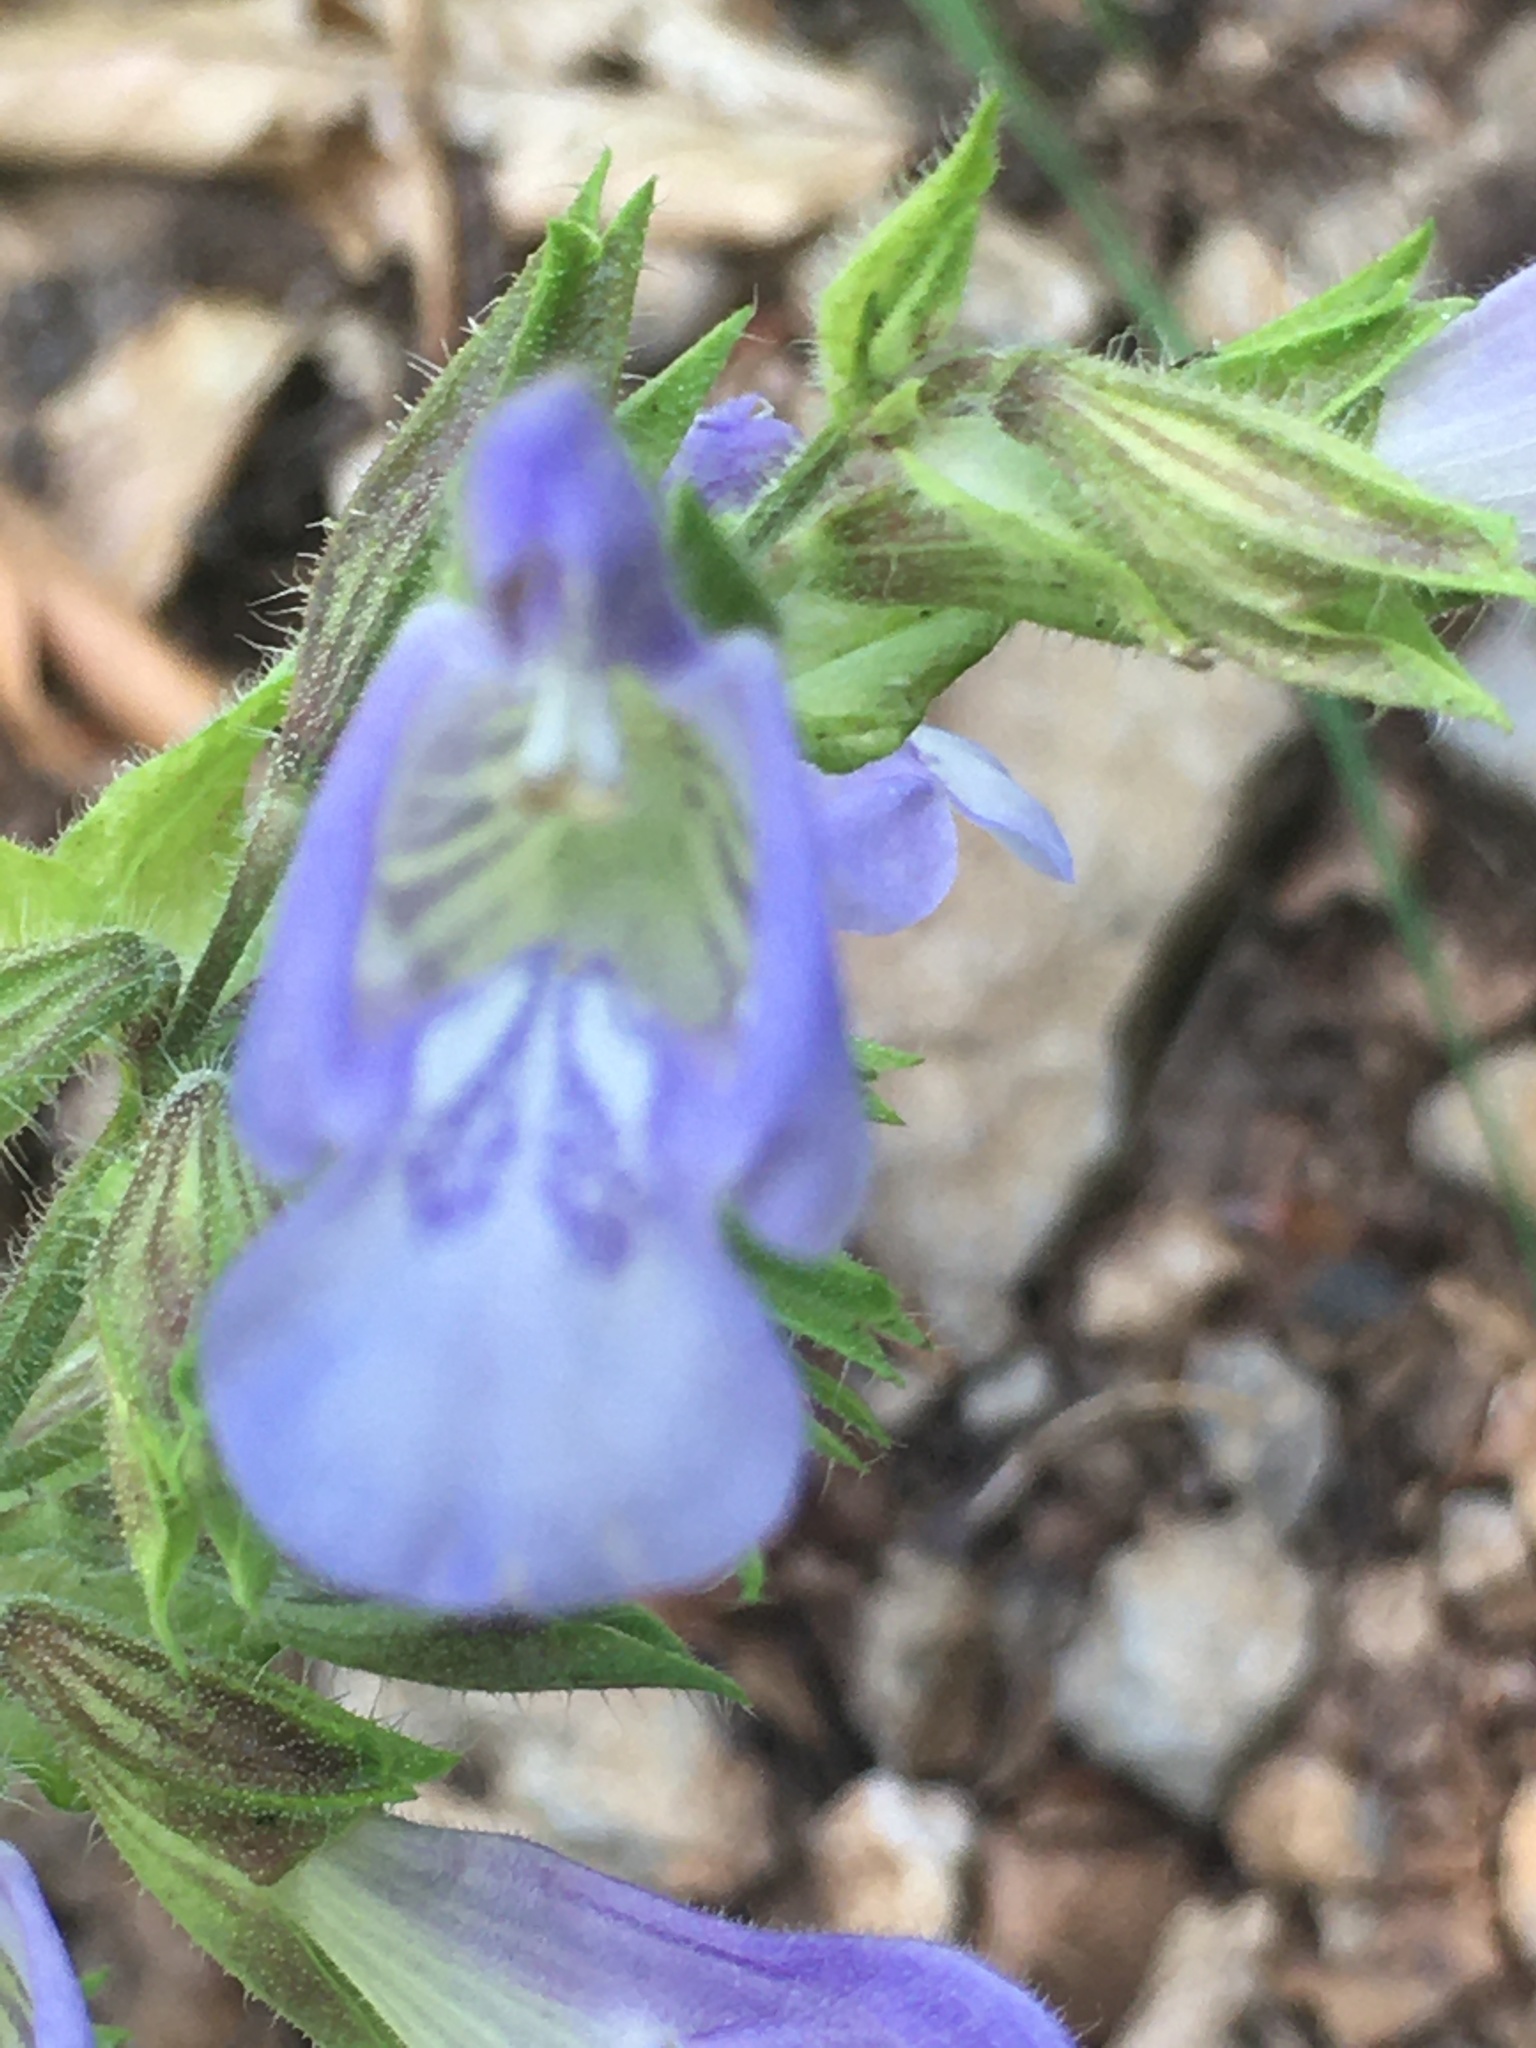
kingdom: Plantae
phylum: Tracheophyta
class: Magnoliopsida
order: Lamiales
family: Lamiaceae
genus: Salvia
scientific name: Salvia tomentosa
